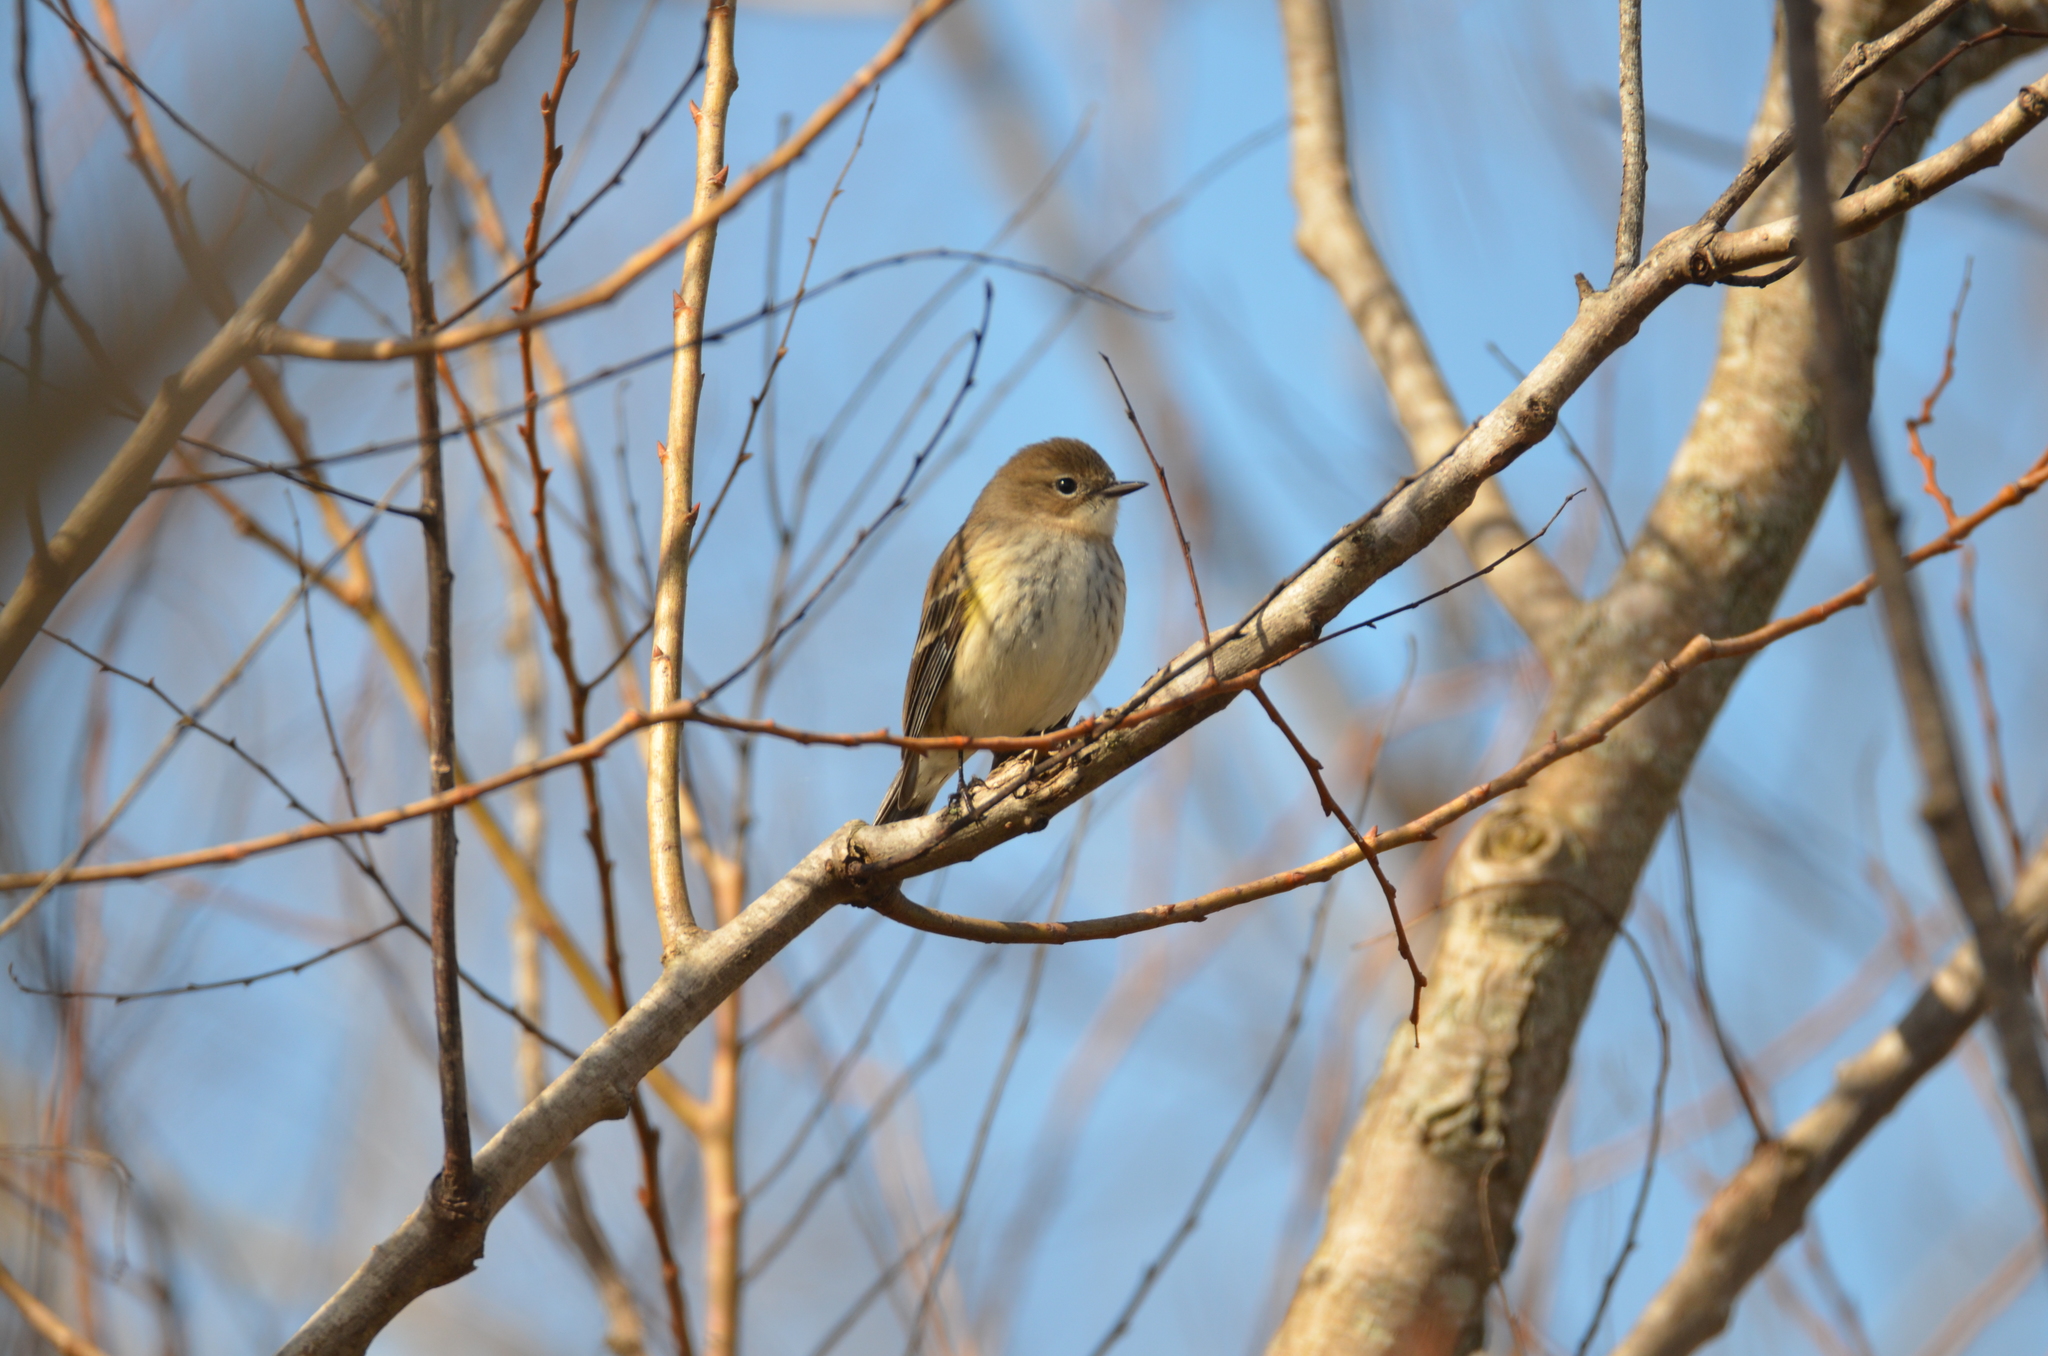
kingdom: Animalia
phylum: Chordata
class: Aves
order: Passeriformes
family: Parulidae
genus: Setophaga
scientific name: Setophaga coronata
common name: Myrtle warbler
